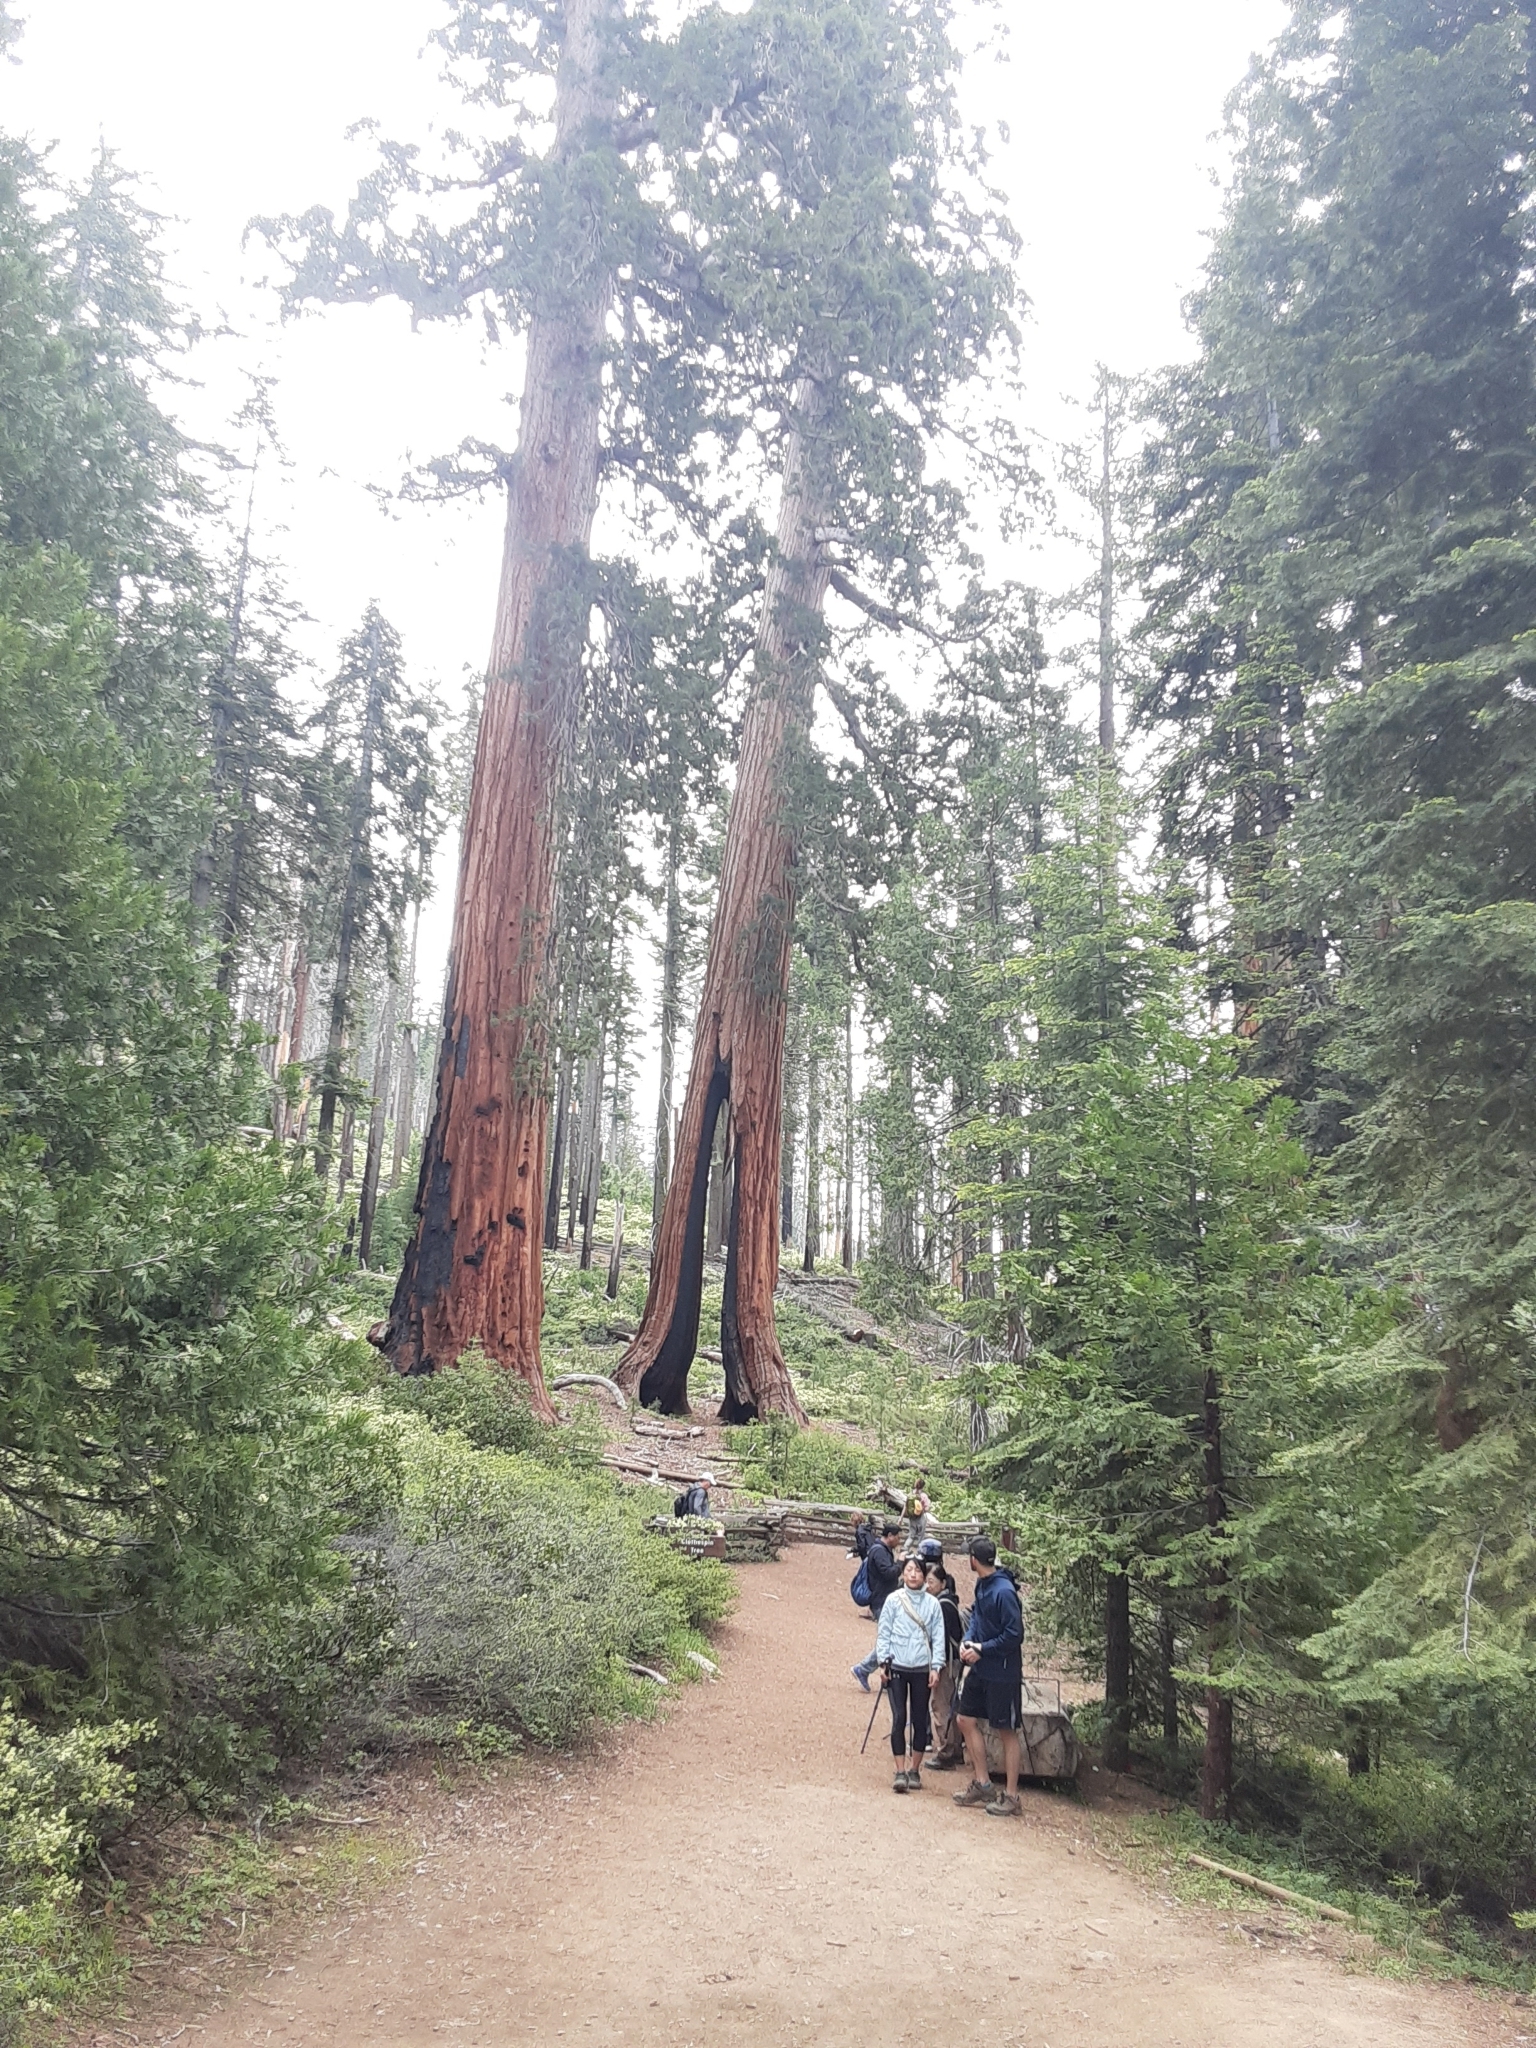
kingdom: Plantae
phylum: Tracheophyta
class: Pinopsida
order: Pinales
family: Cupressaceae
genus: Sequoiadendron
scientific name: Sequoiadendron giganteum
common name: Wellingtonia
